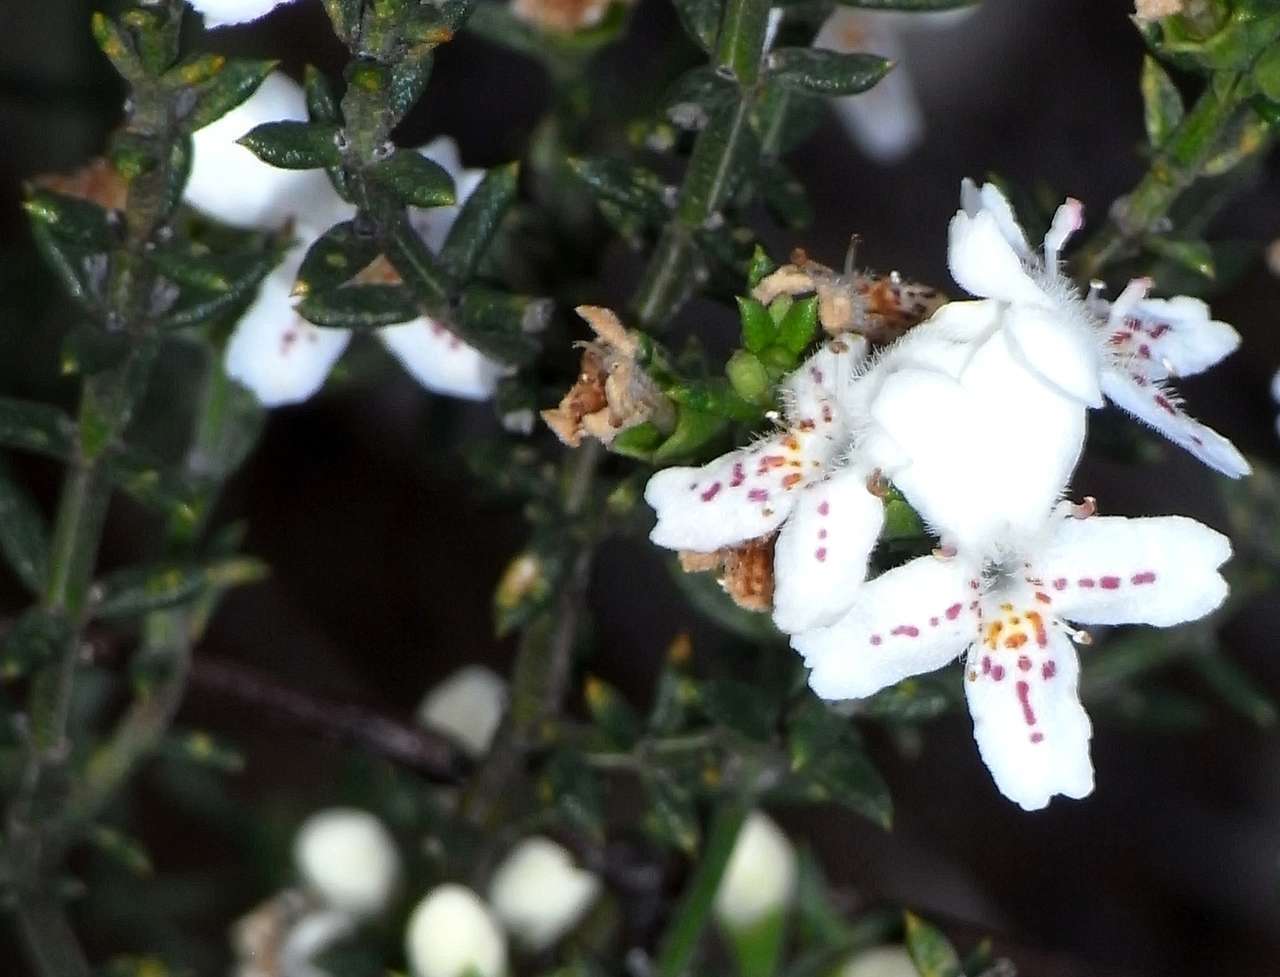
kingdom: Plantae
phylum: Tracheophyta
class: Magnoliopsida
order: Lamiales
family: Lamiaceae
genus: Westringia
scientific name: Westringia rigida
